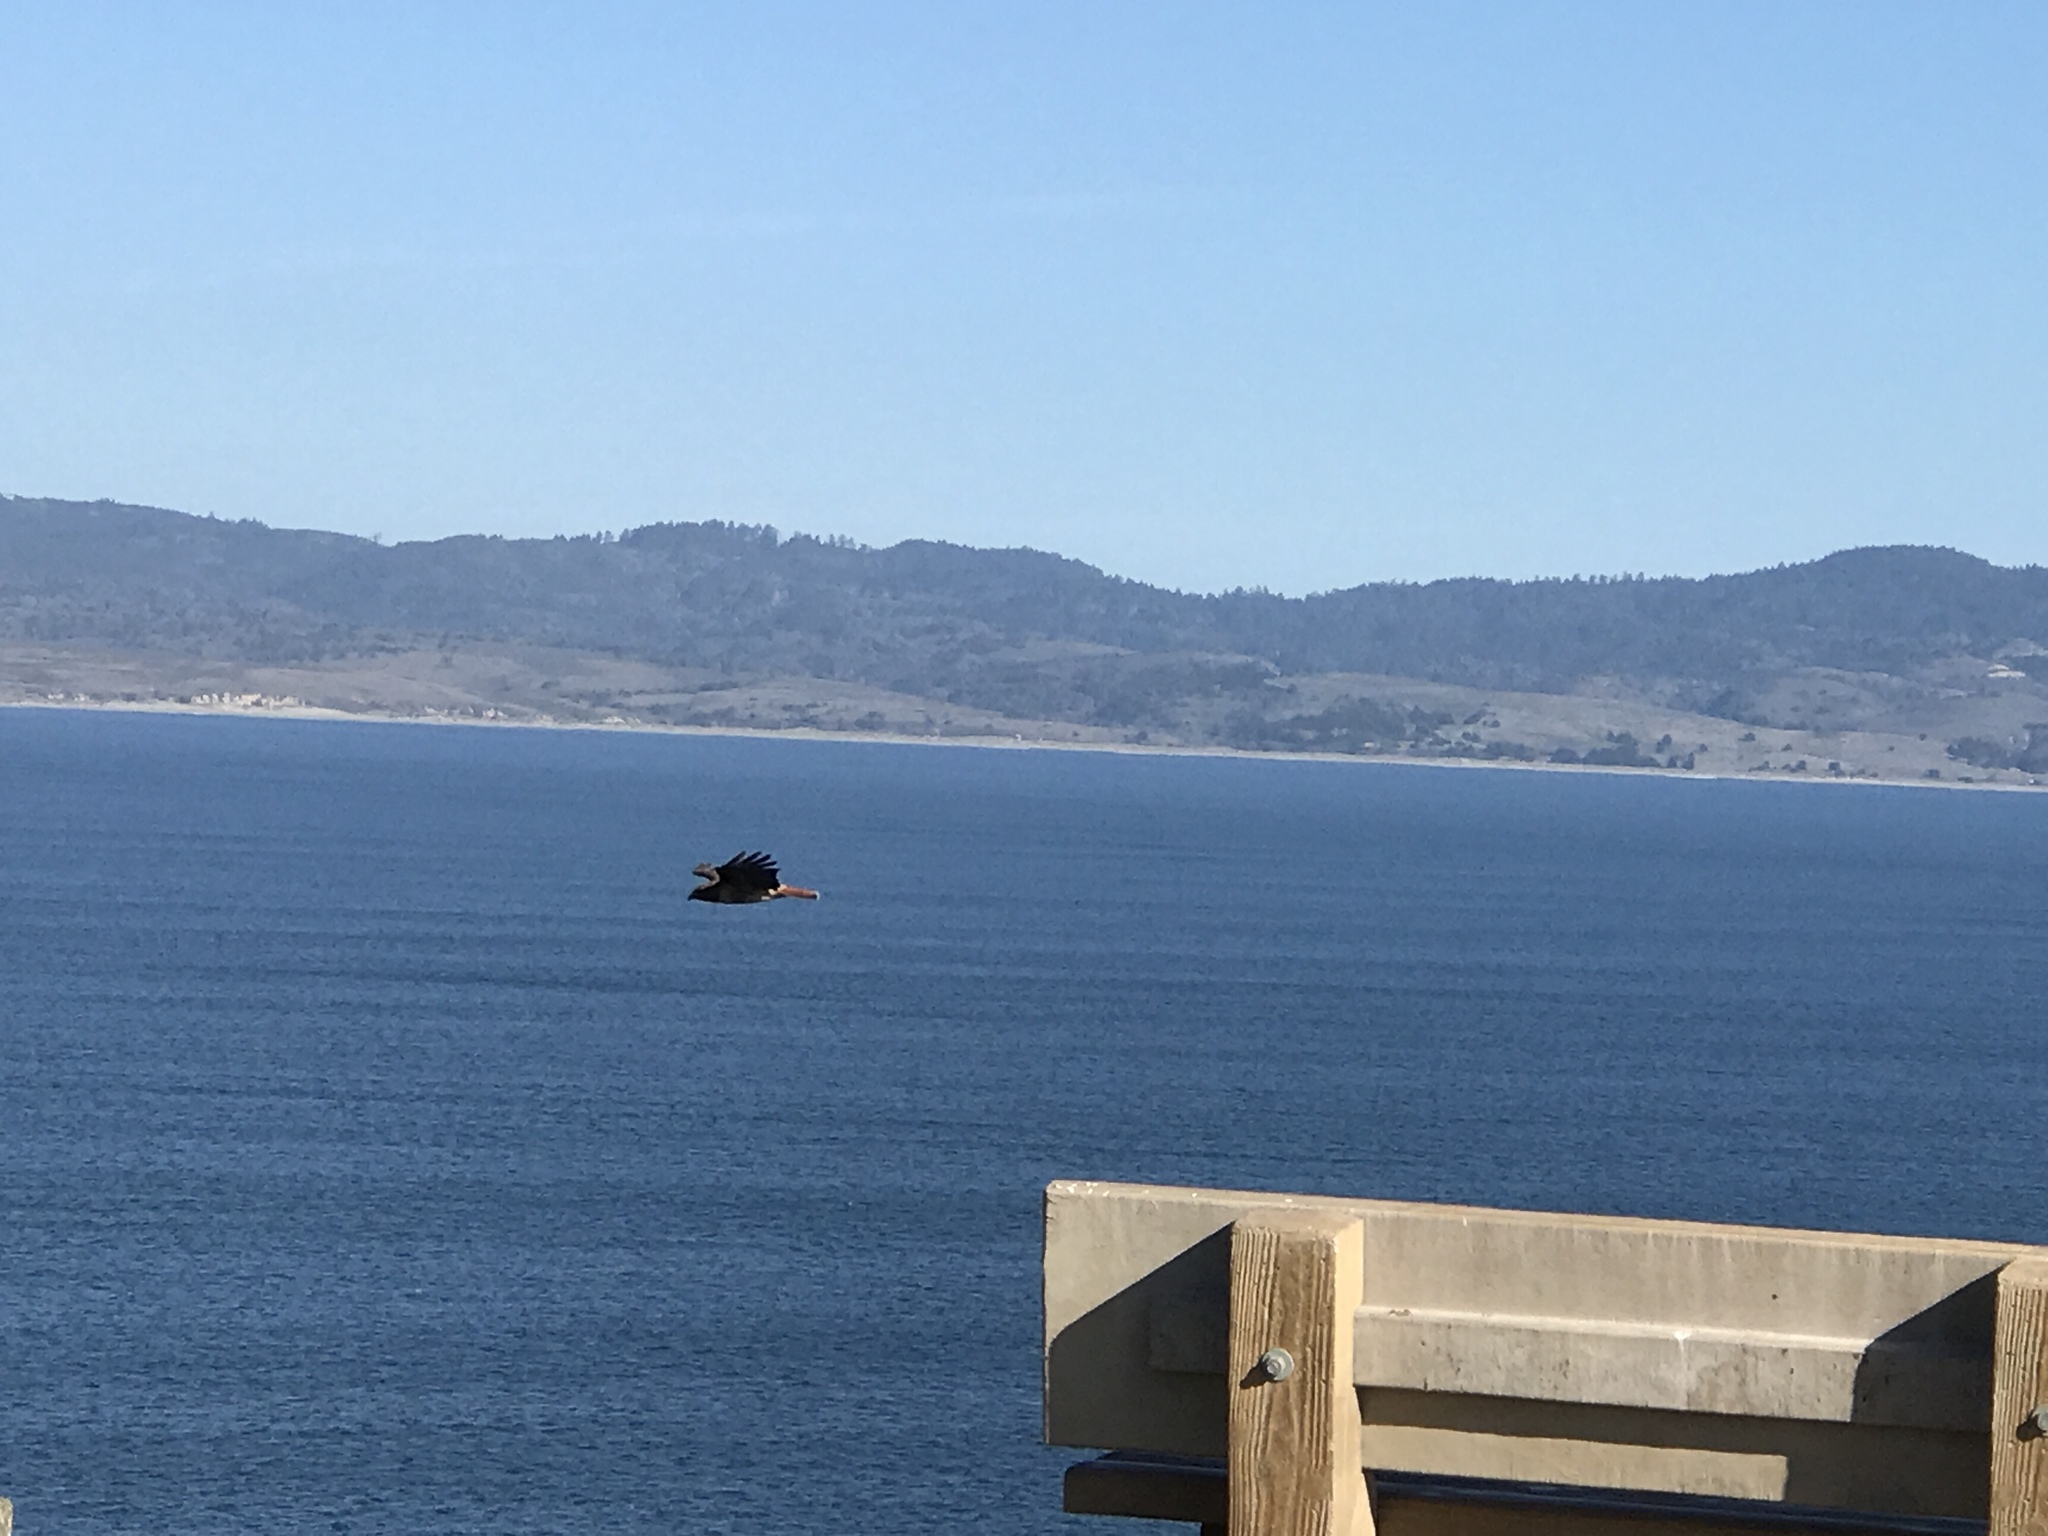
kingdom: Animalia
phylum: Chordata
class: Aves
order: Accipitriformes
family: Accipitridae
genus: Buteo
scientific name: Buteo jamaicensis
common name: Red-tailed hawk
